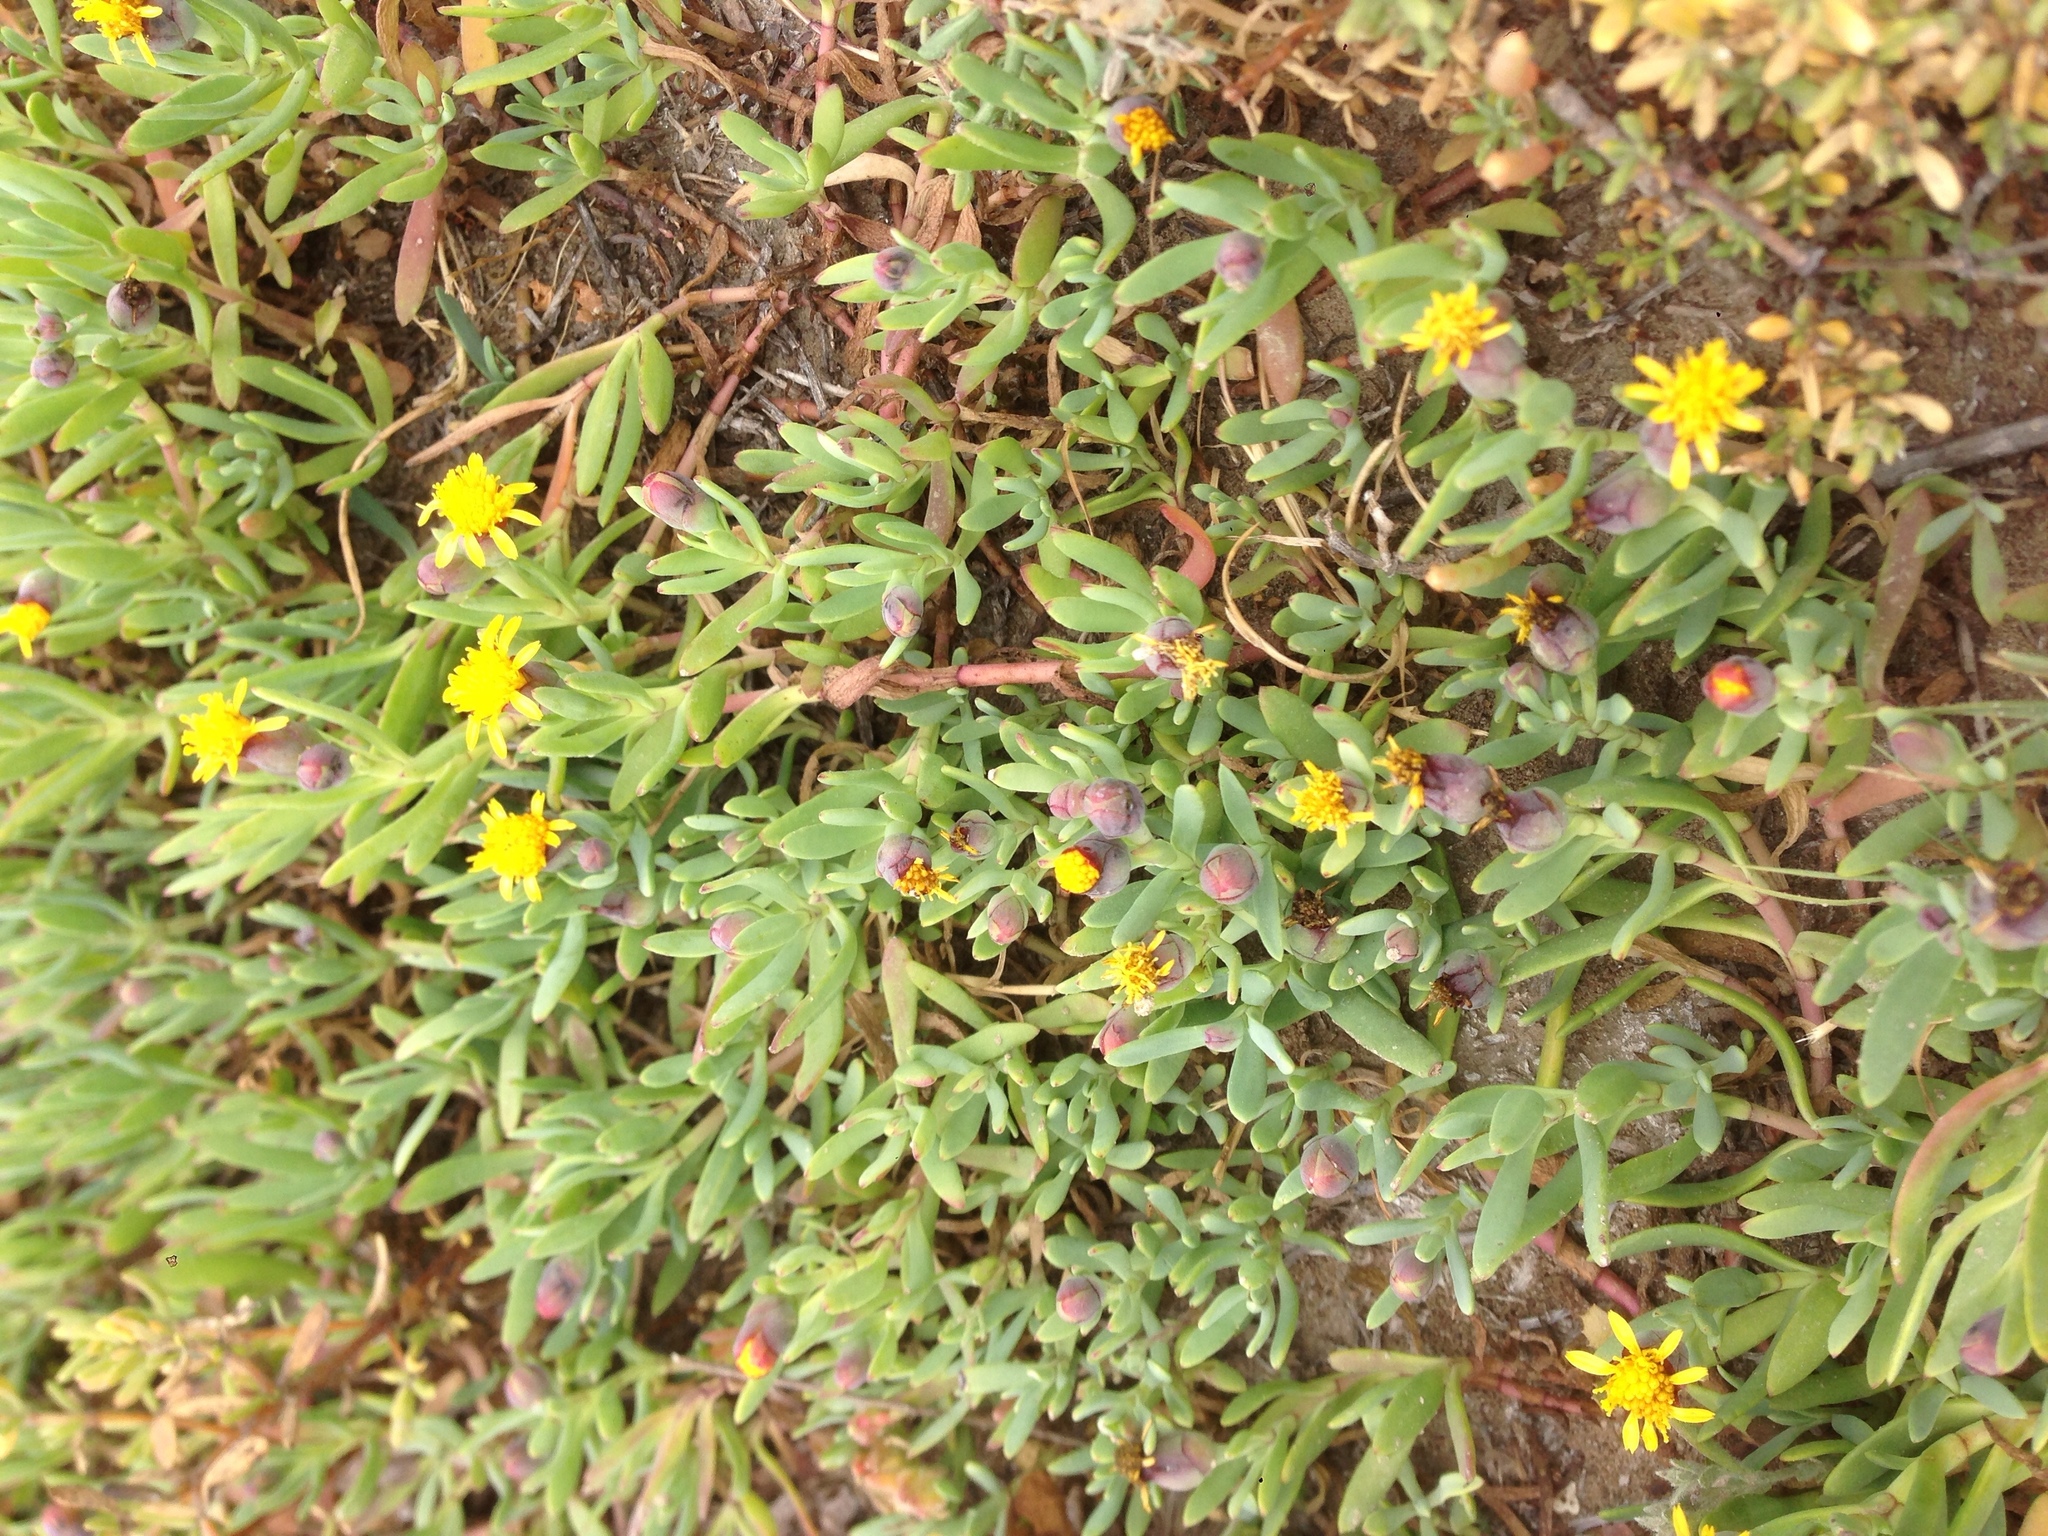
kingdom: Plantae
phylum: Tracheophyta
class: Magnoliopsida
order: Asterales
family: Asteraceae
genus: Jaumea
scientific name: Jaumea carnosa
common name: Fleshy jaumea
